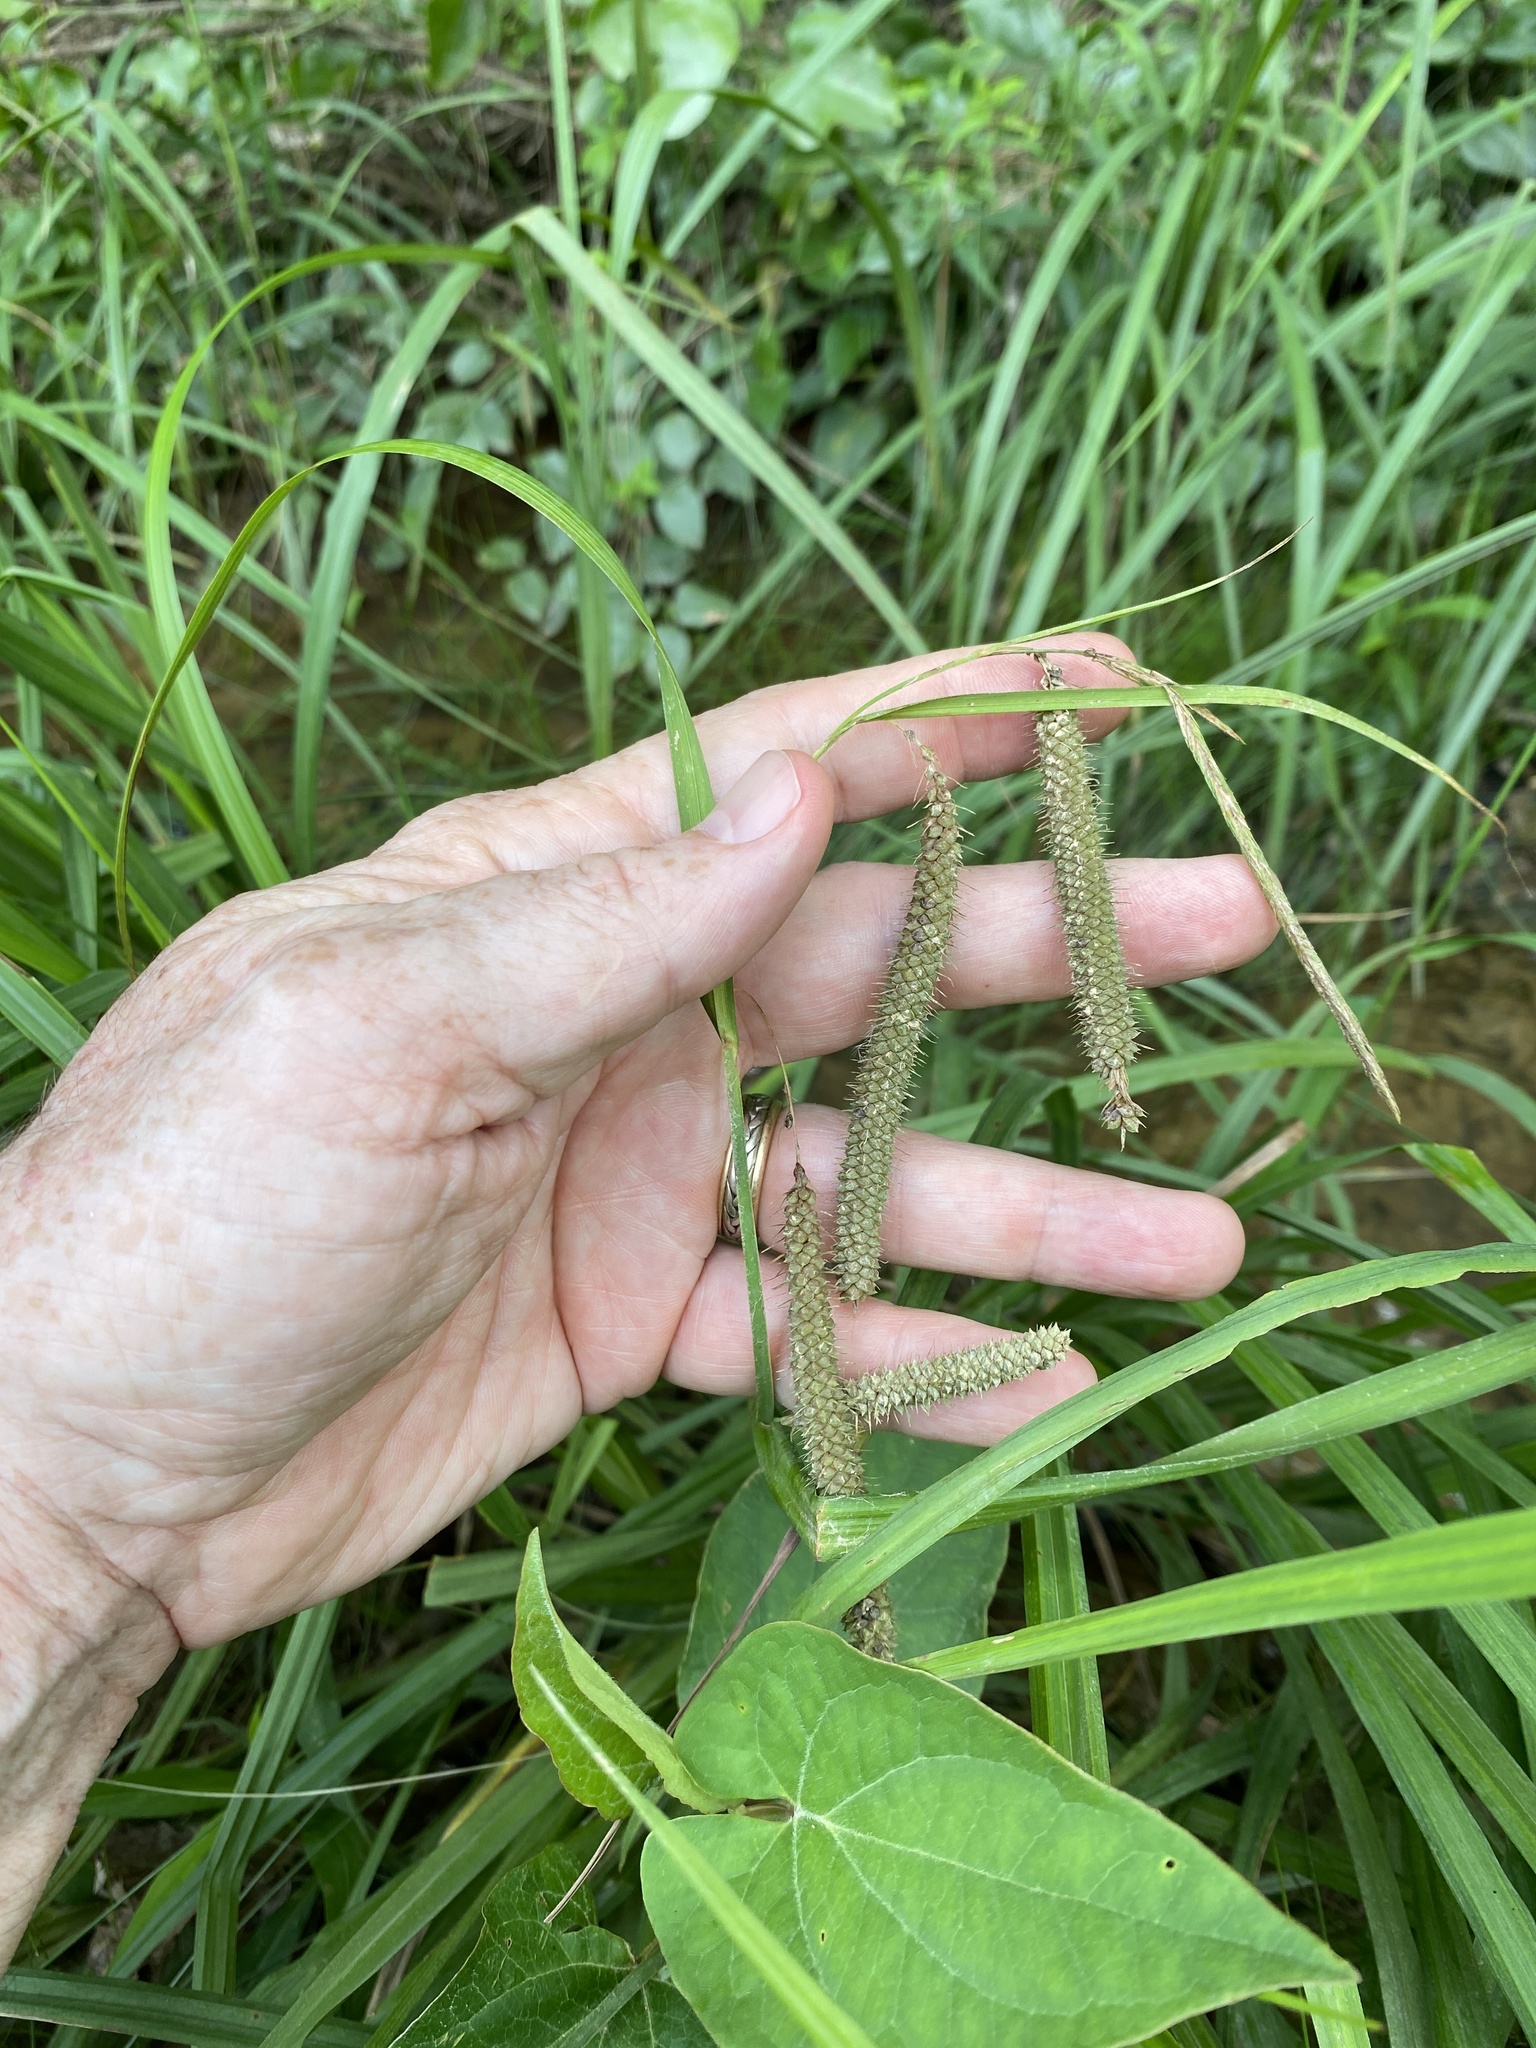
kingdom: Plantae
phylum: Tracheophyta
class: Liliopsida
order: Poales
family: Cyperaceae
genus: Carex
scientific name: Carex crinita
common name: Fringed sedge
